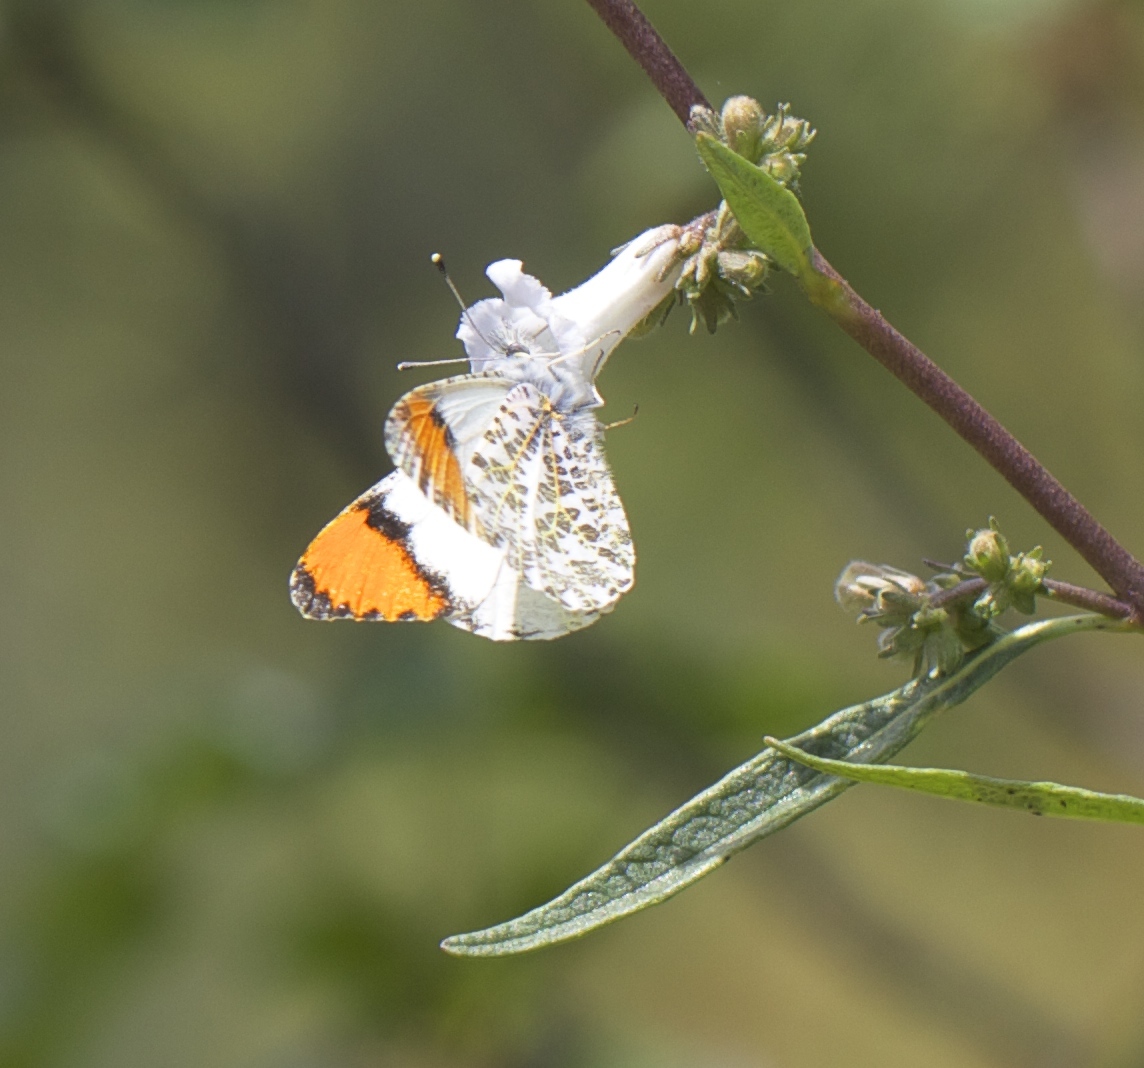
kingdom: Animalia
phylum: Arthropoda
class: Insecta
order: Lepidoptera
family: Pieridae
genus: Anthocharis
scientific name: Anthocharis sara
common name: Sara's orangetip
